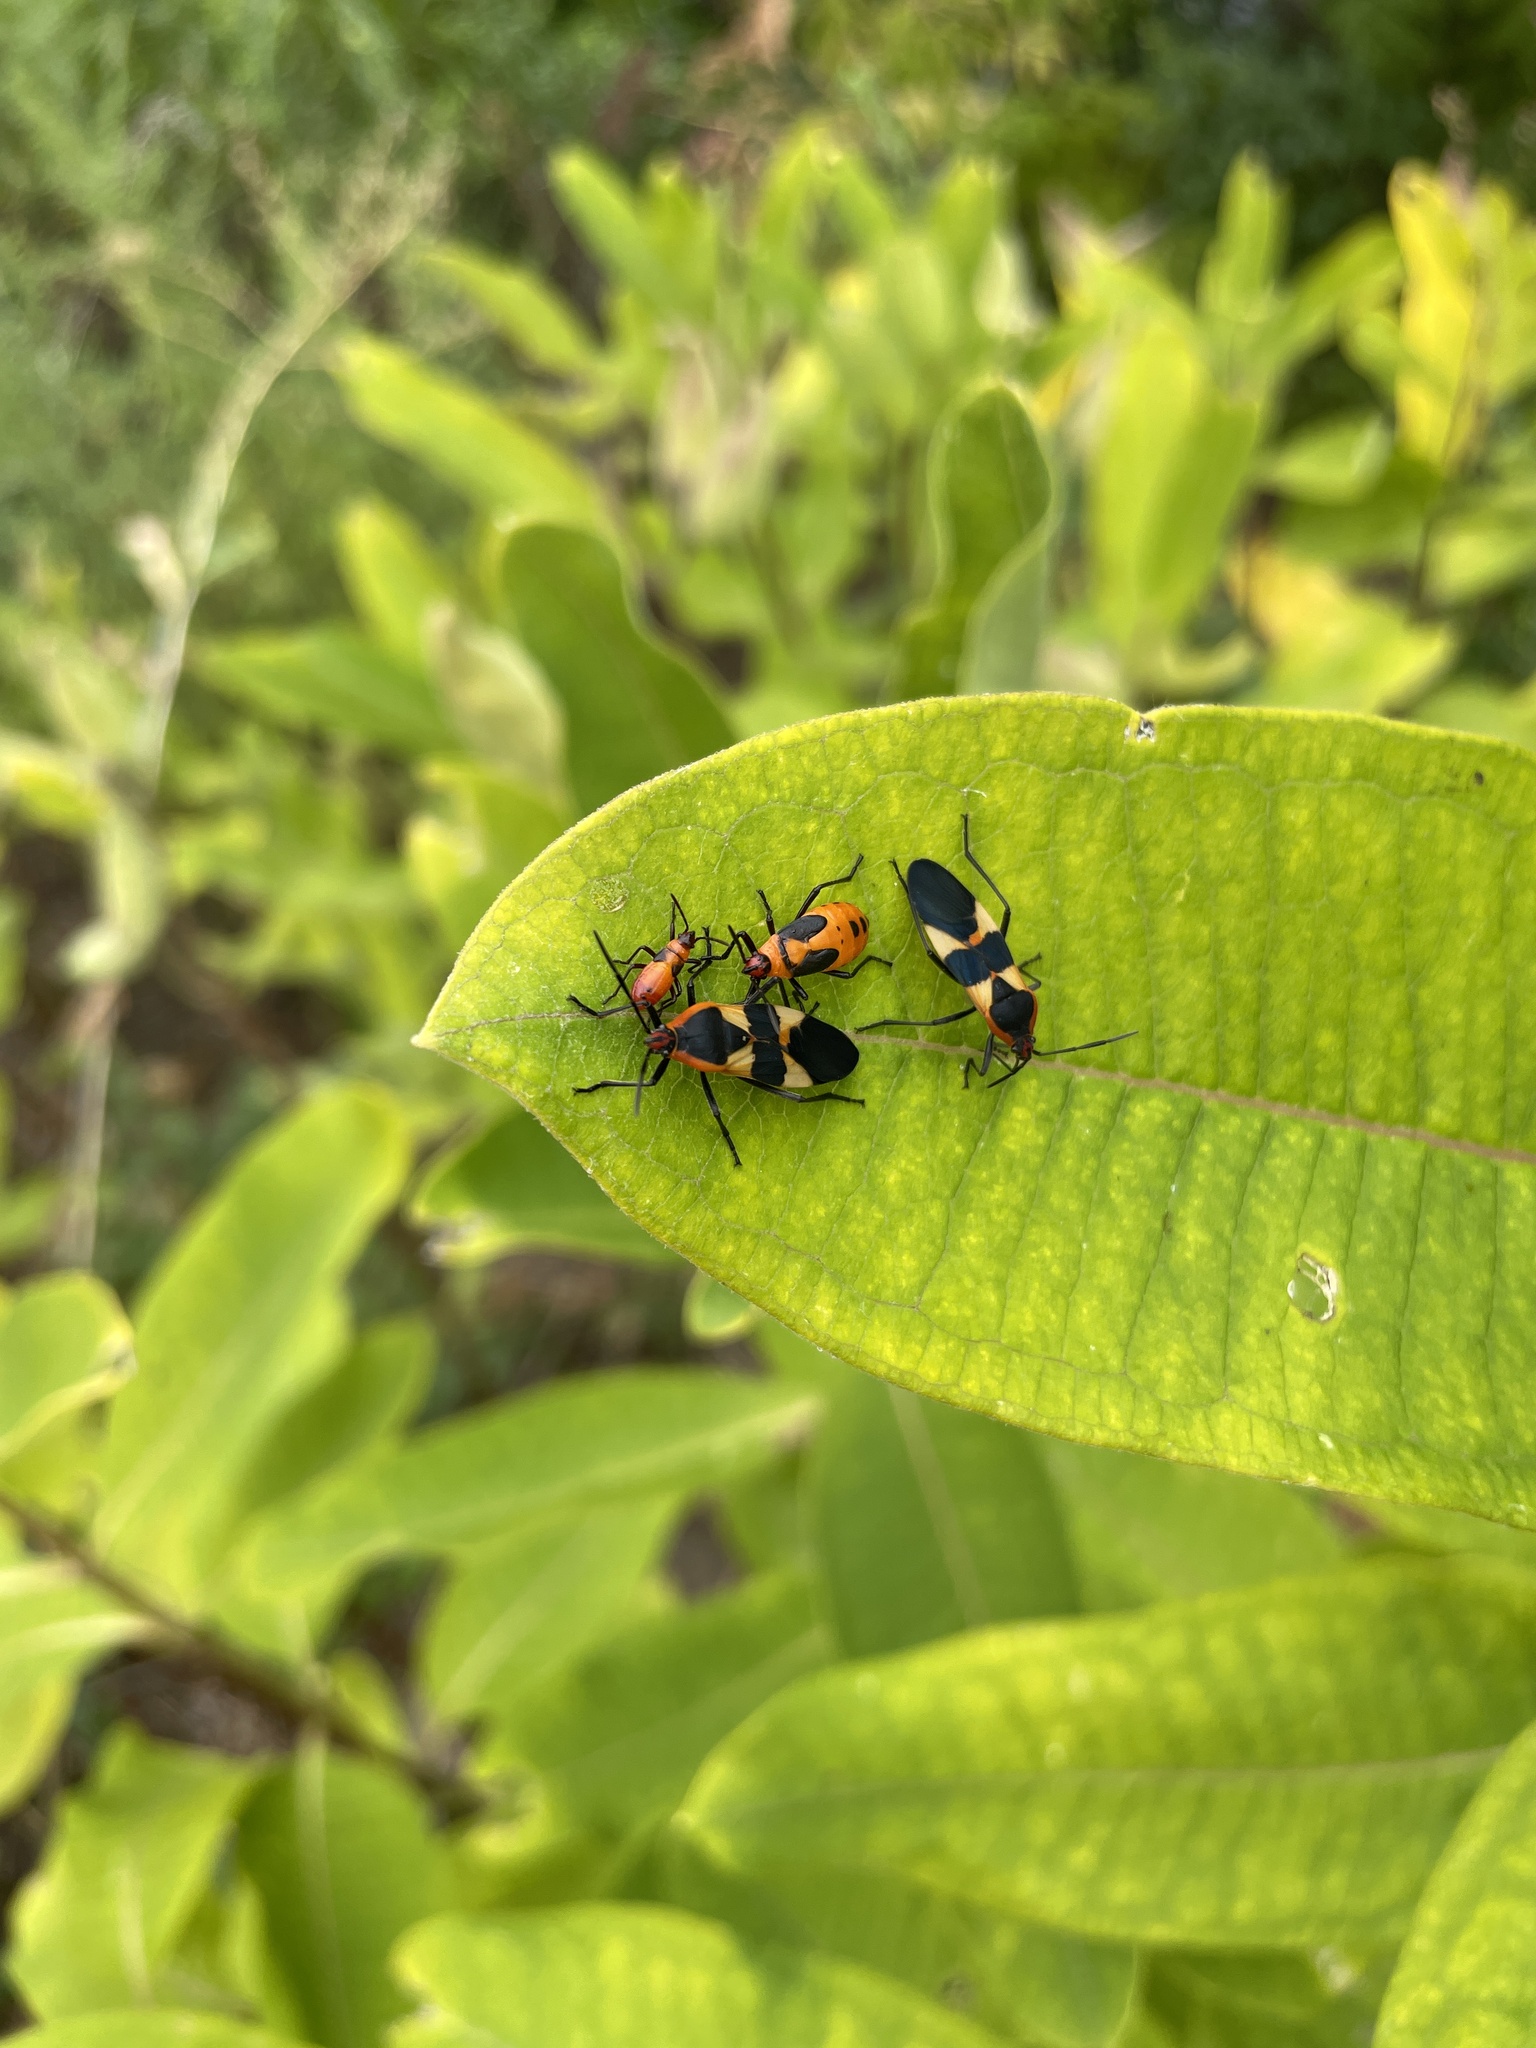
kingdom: Animalia
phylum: Arthropoda
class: Insecta
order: Hemiptera
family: Lygaeidae
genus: Oncopeltus
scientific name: Oncopeltus fasciatus
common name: Large milkweed bug
